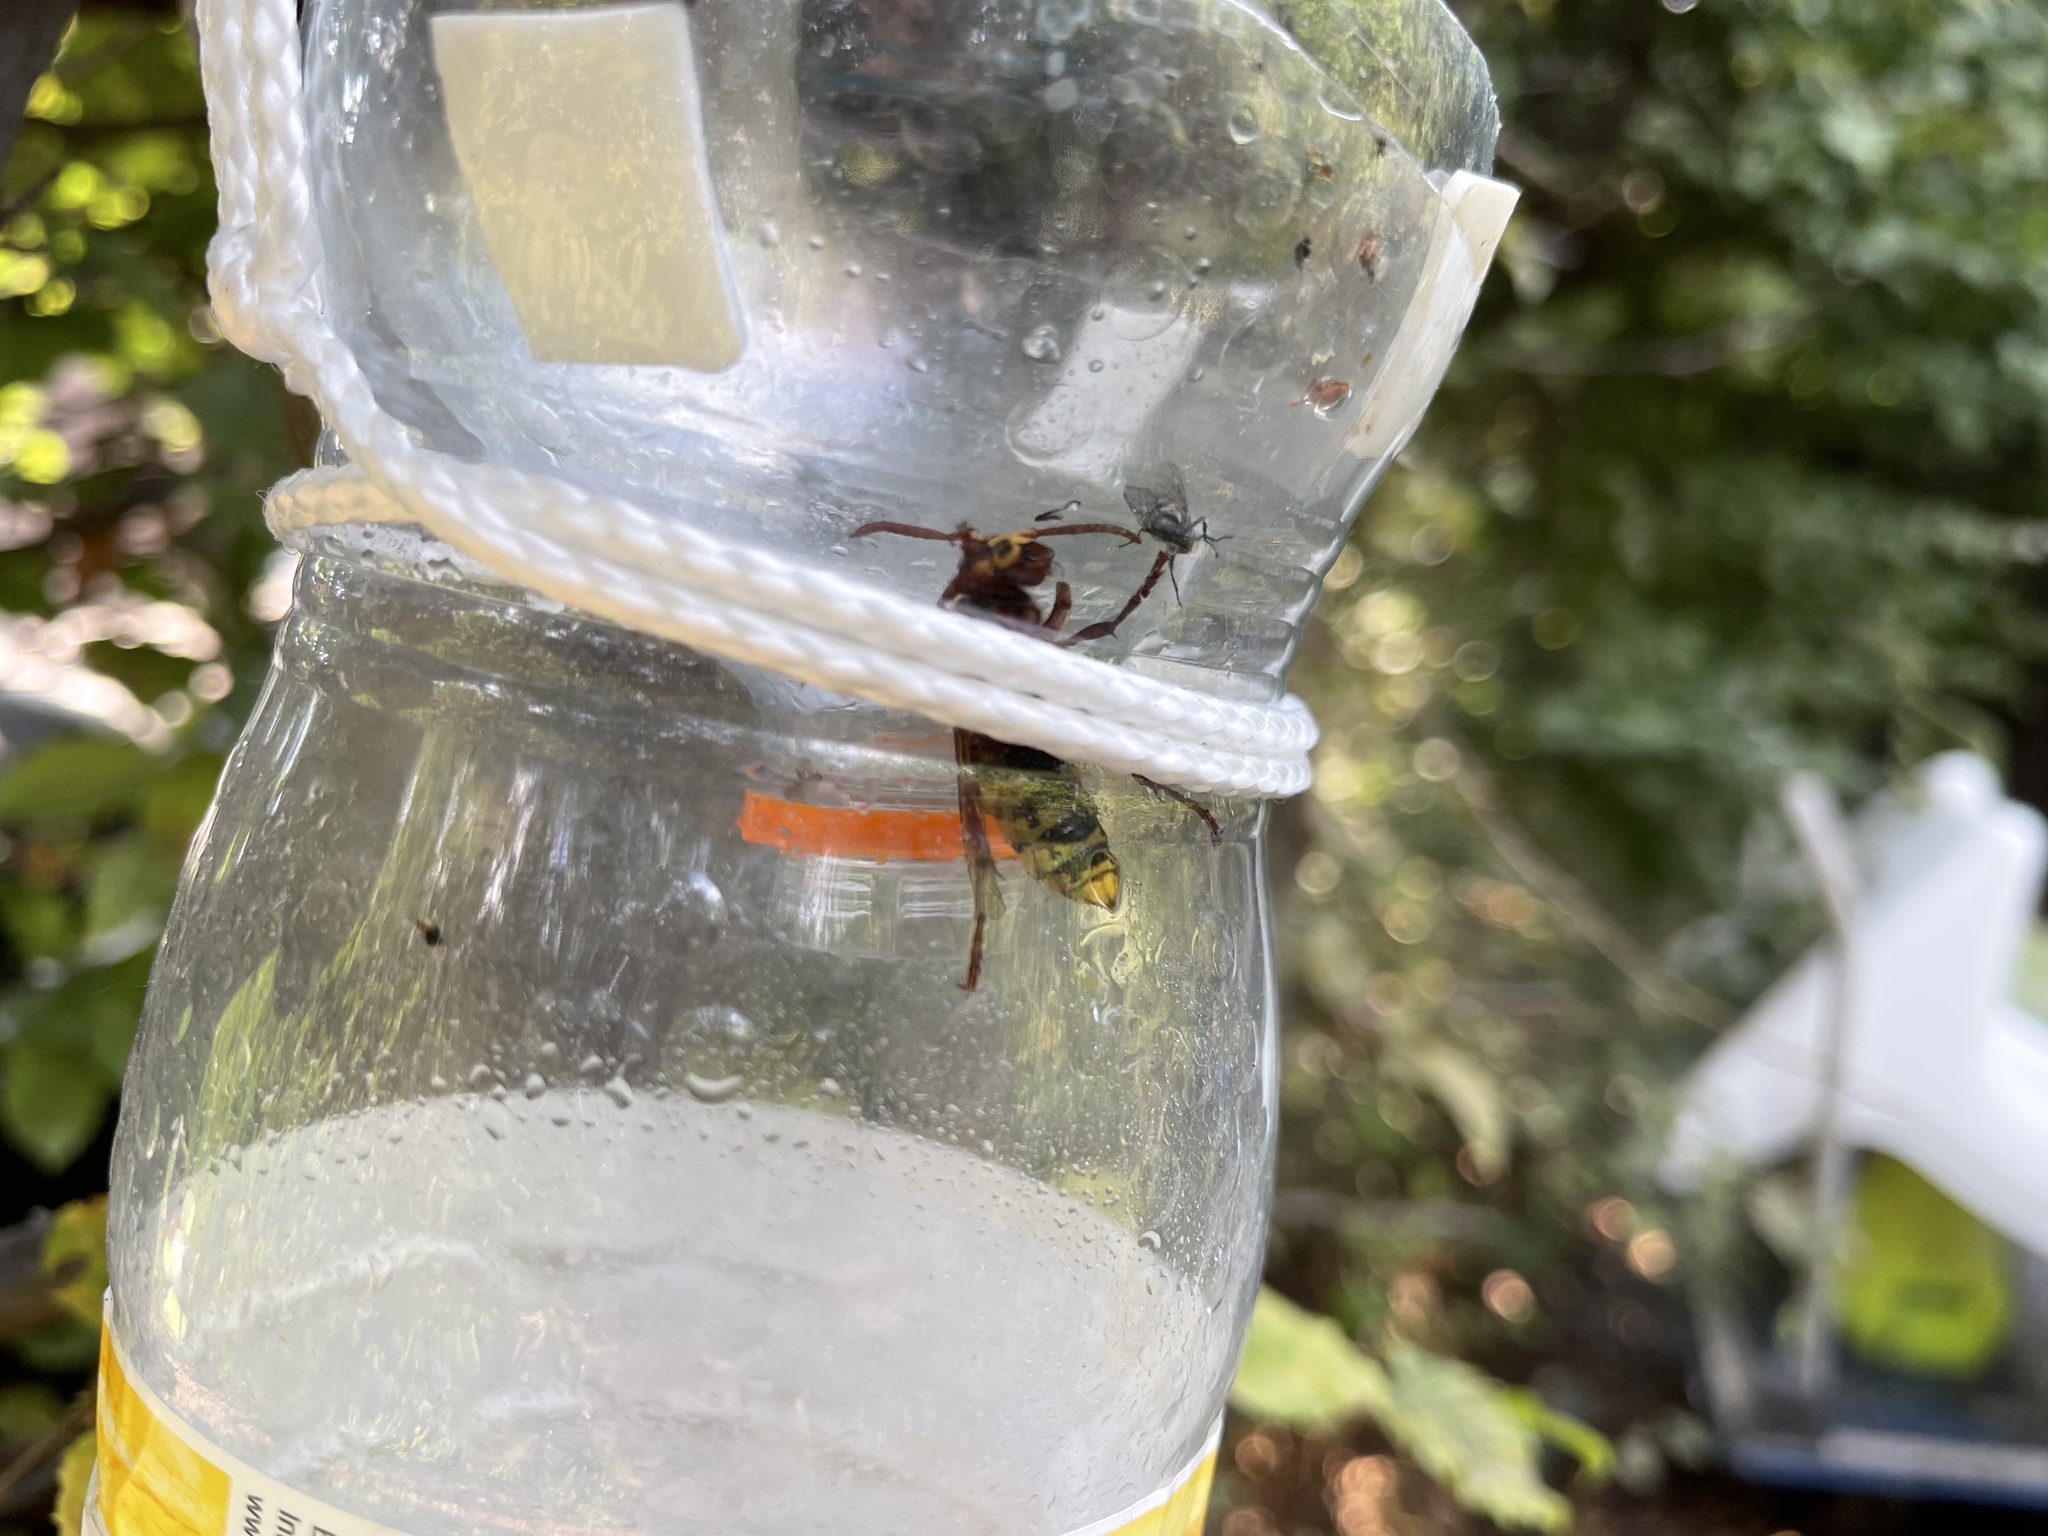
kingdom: Animalia
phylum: Arthropoda
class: Insecta
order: Hymenoptera
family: Vespidae
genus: Vespa
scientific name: Vespa crabro
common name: Hornet
